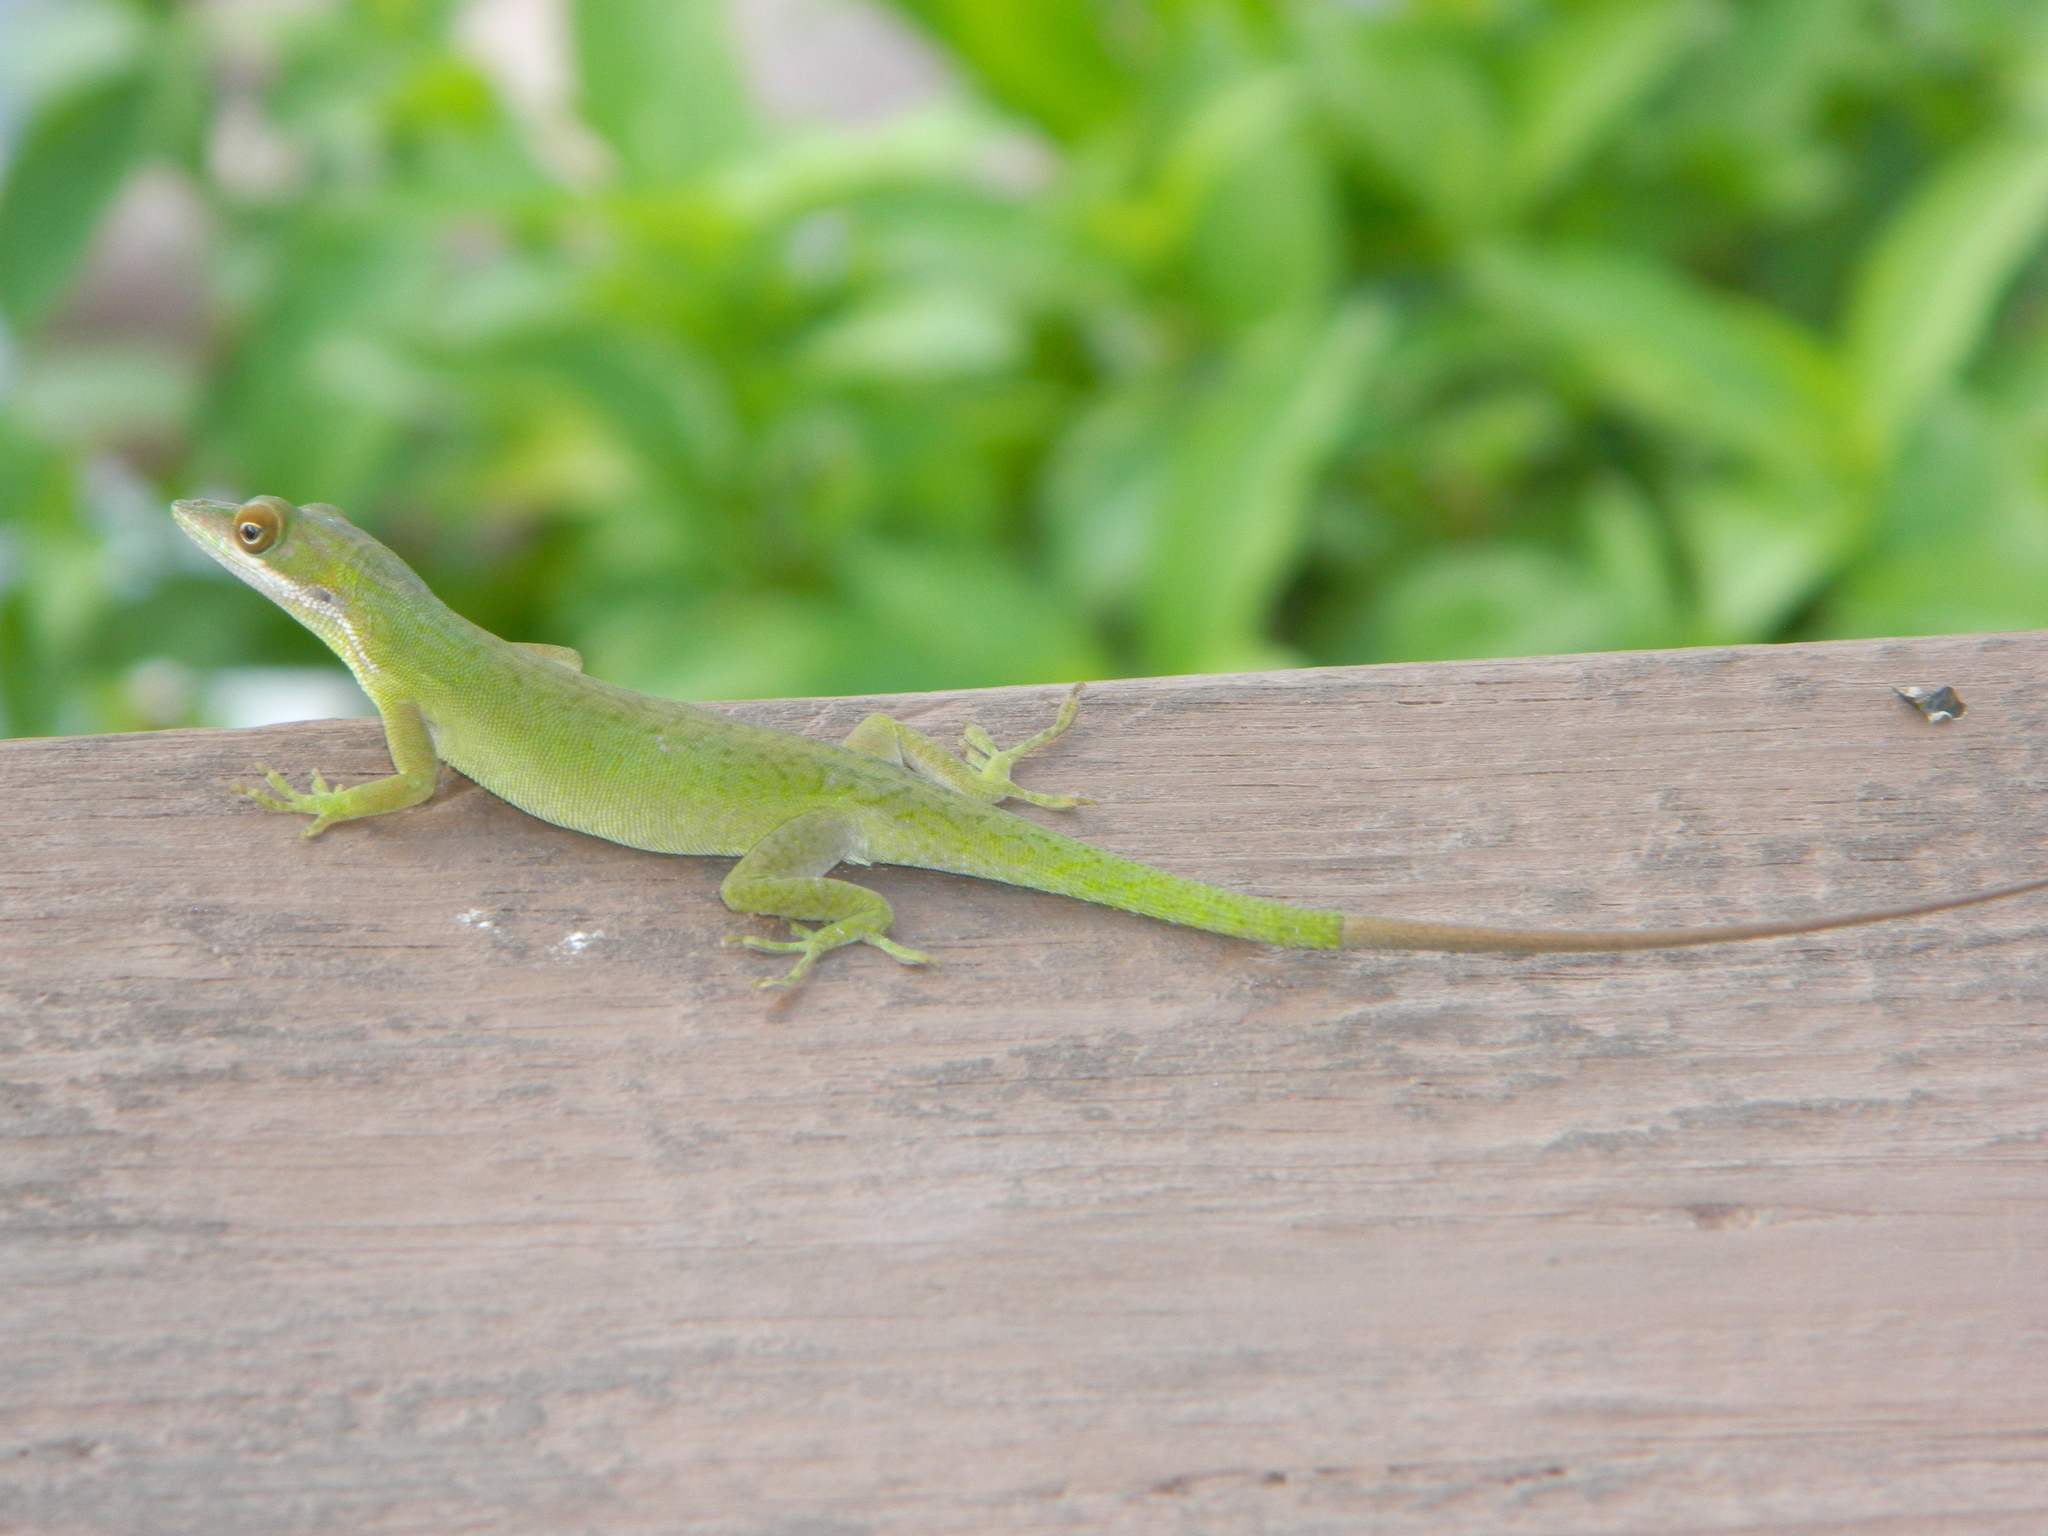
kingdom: Animalia
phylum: Chordata
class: Squamata
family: Dactyloidae
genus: Anolis
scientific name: Anolis allisoni
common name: Allison's anole
